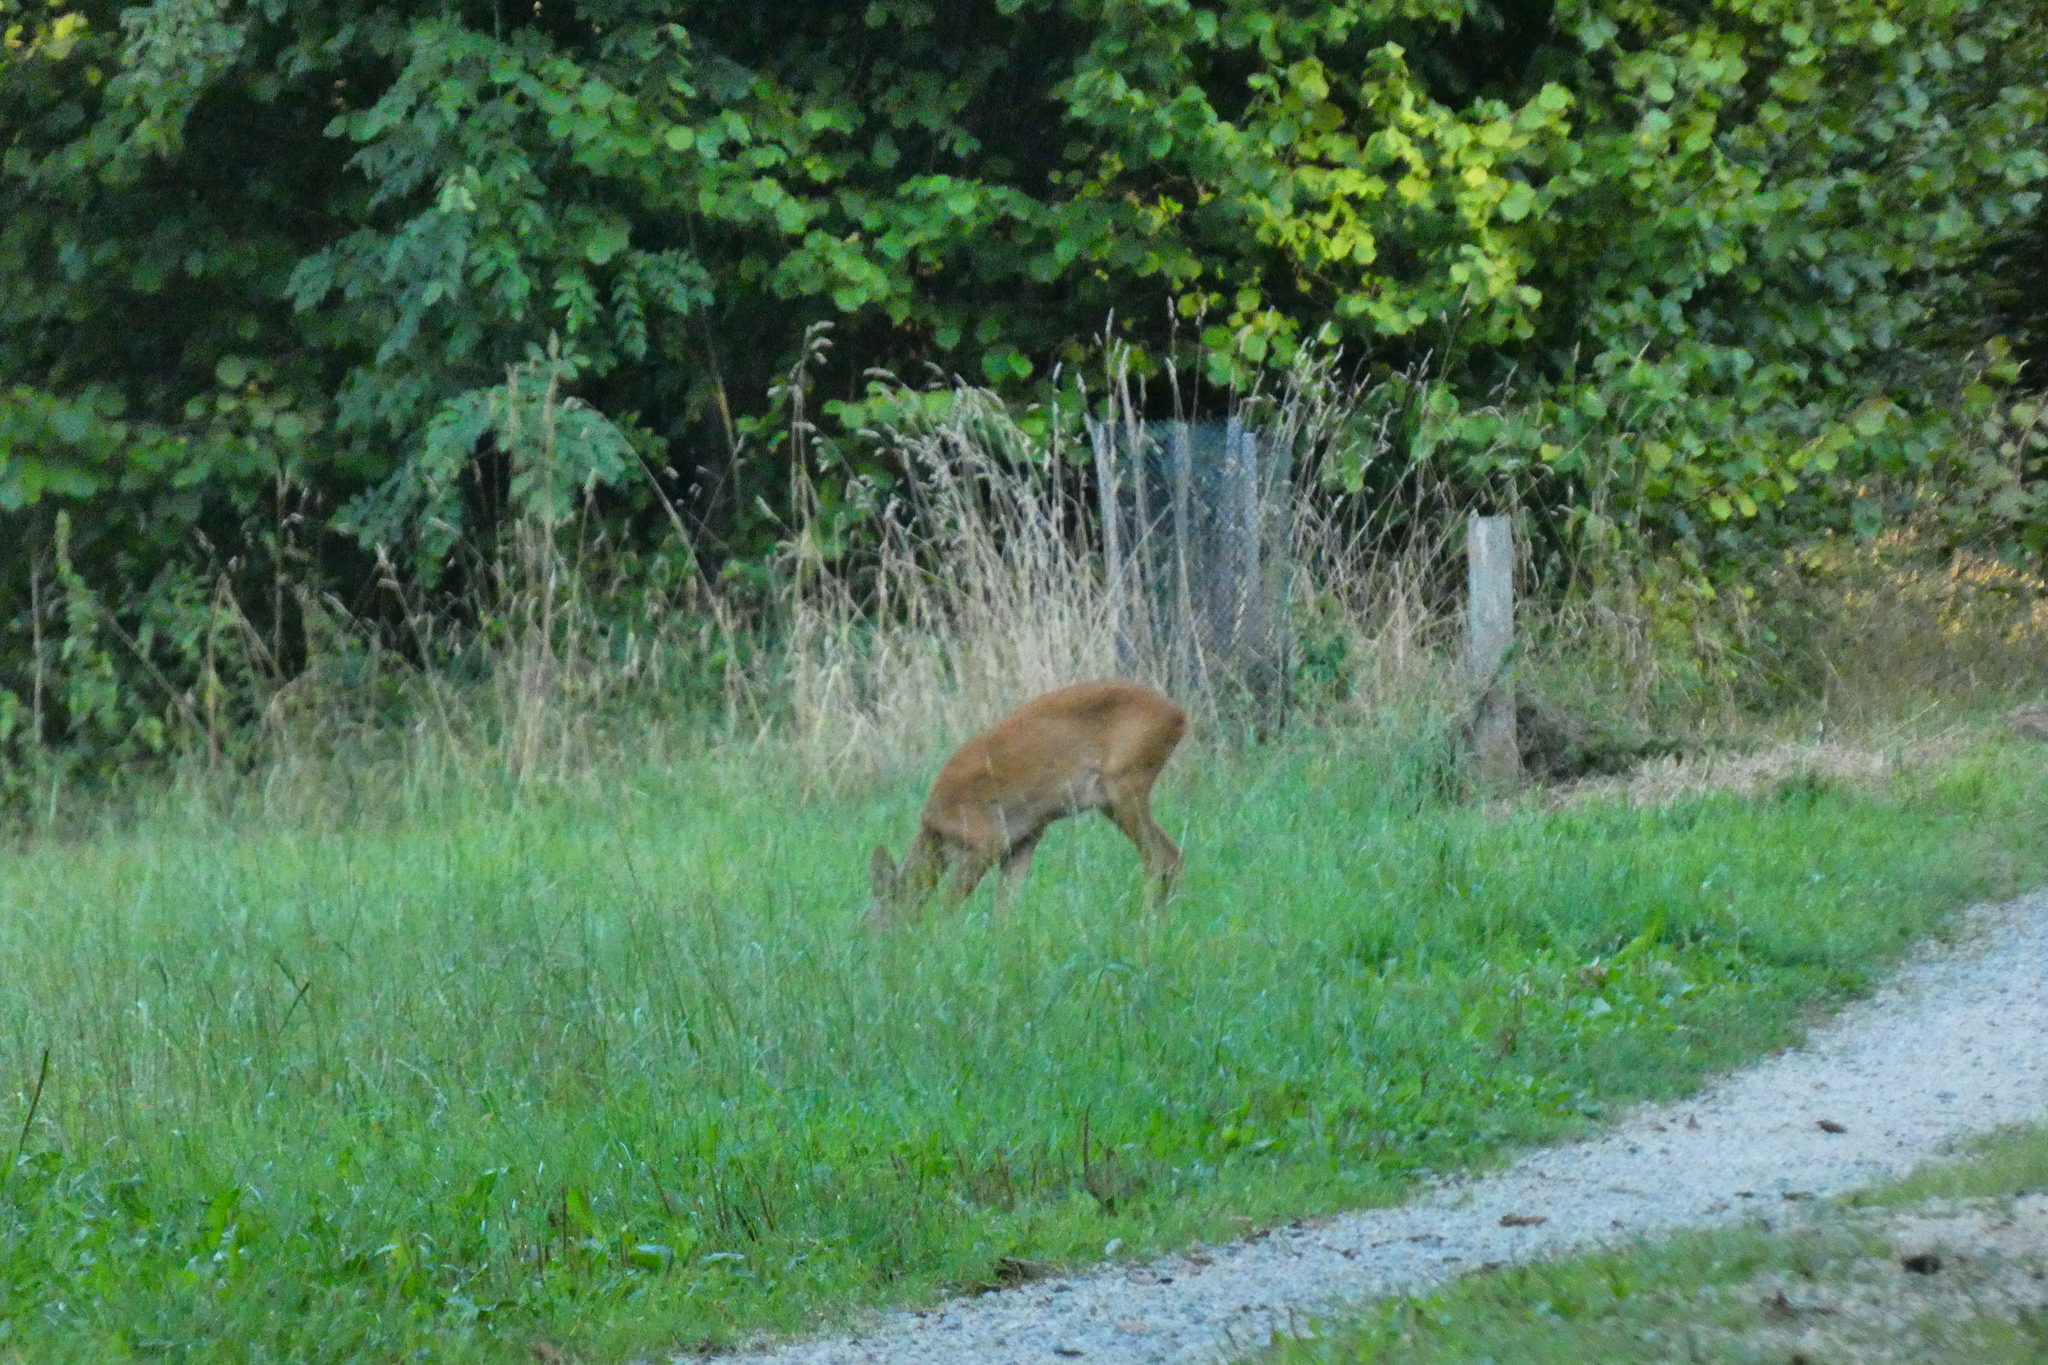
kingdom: Animalia
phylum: Chordata
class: Mammalia
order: Artiodactyla
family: Cervidae
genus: Capreolus
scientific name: Capreolus capreolus
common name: Western roe deer
